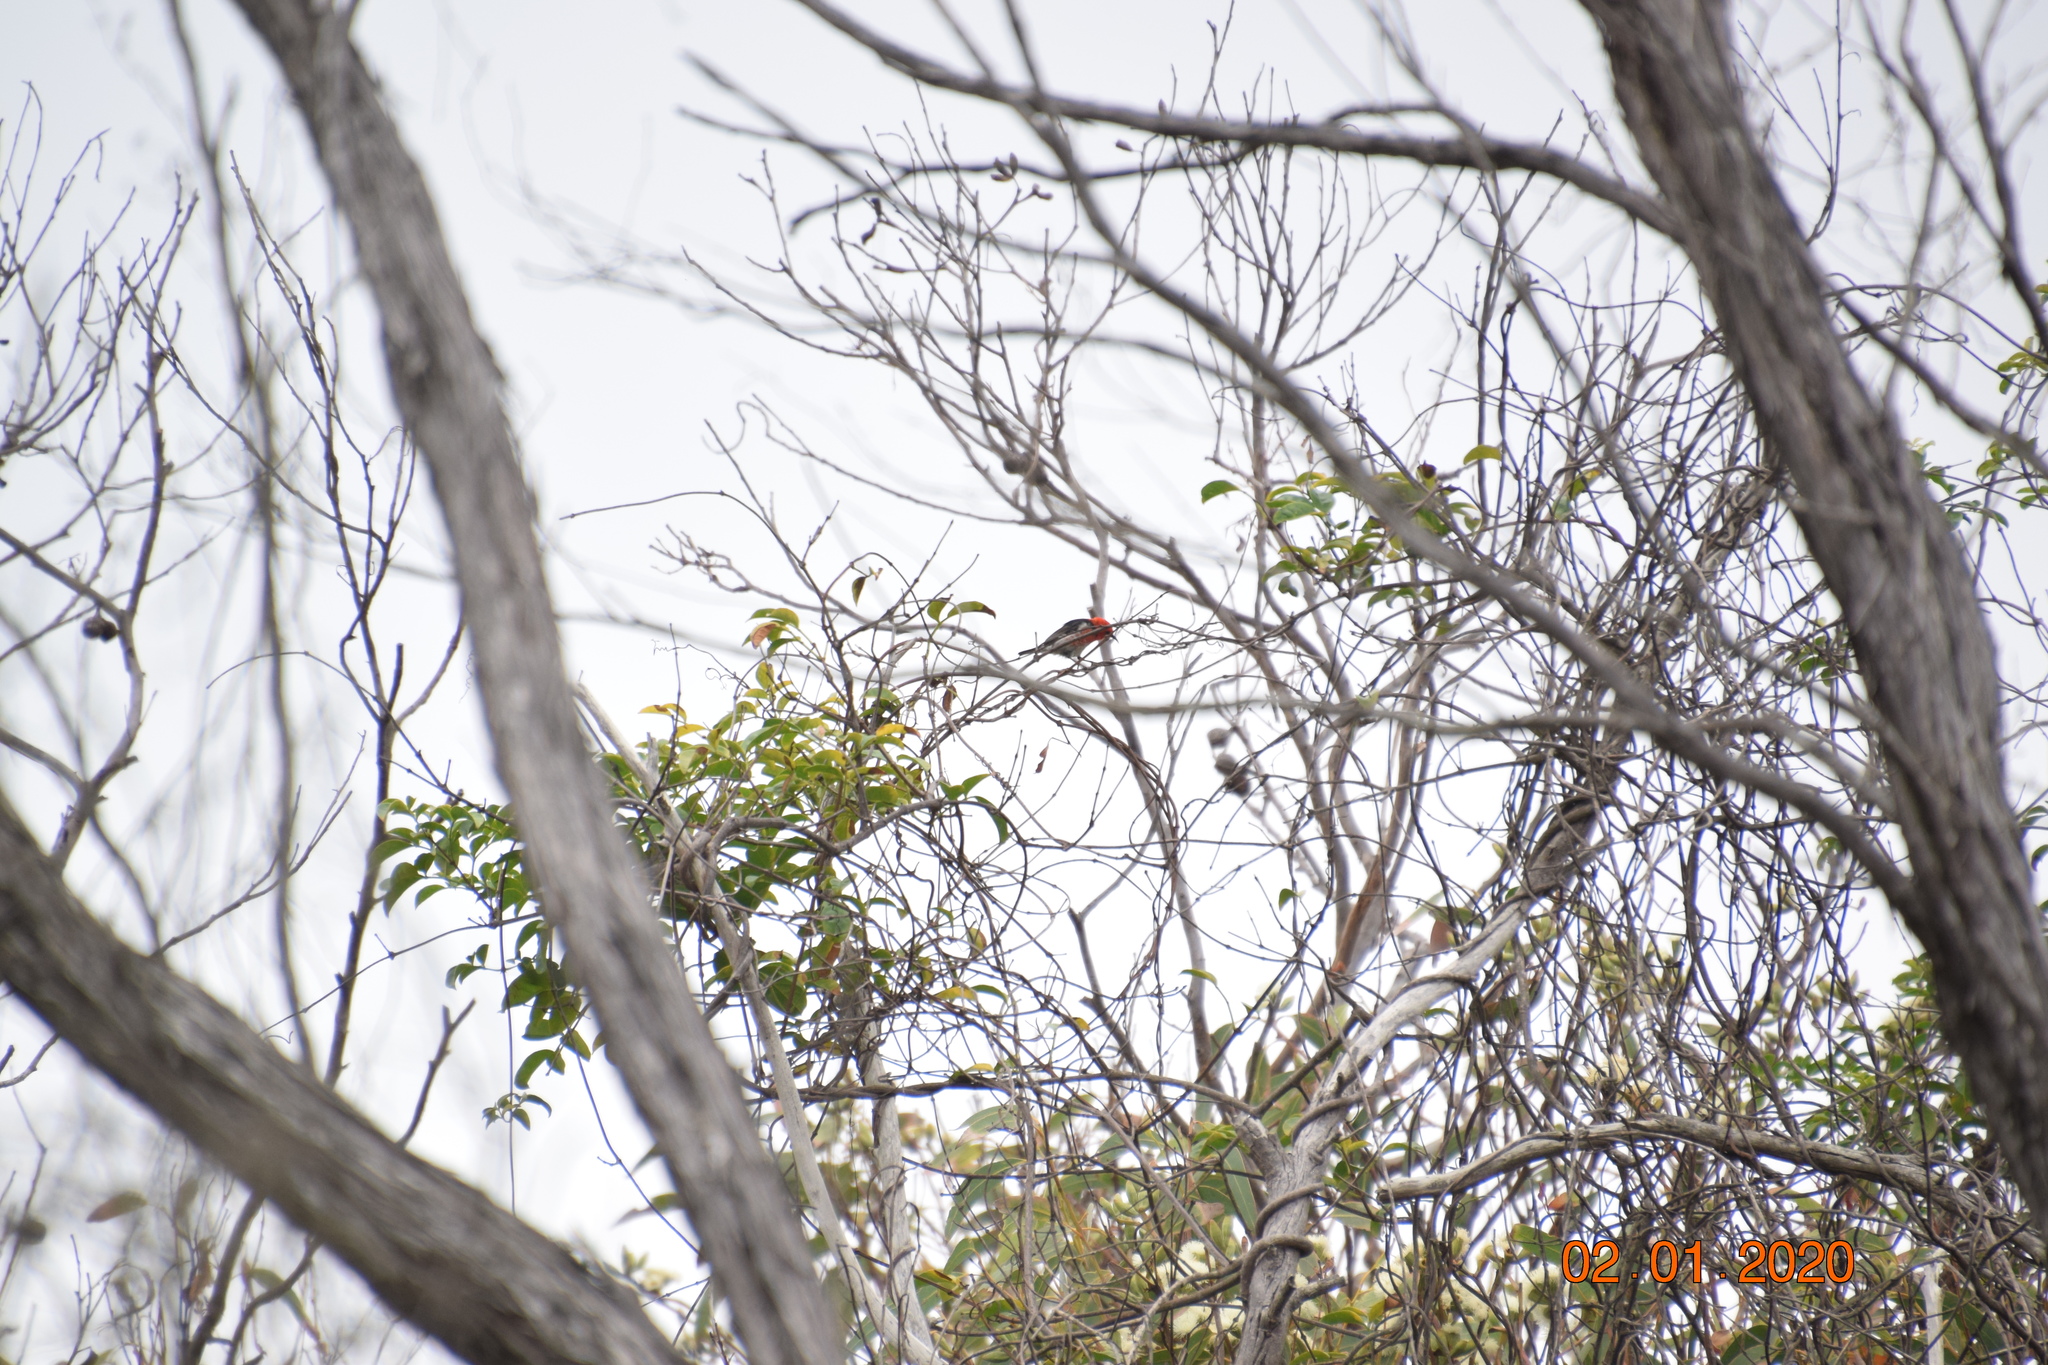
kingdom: Animalia
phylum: Chordata
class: Aves
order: Passeriformes
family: Meliphagidae
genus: Myzomela
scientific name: Myzomela sanguinolenta
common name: Scarlet myzomela
